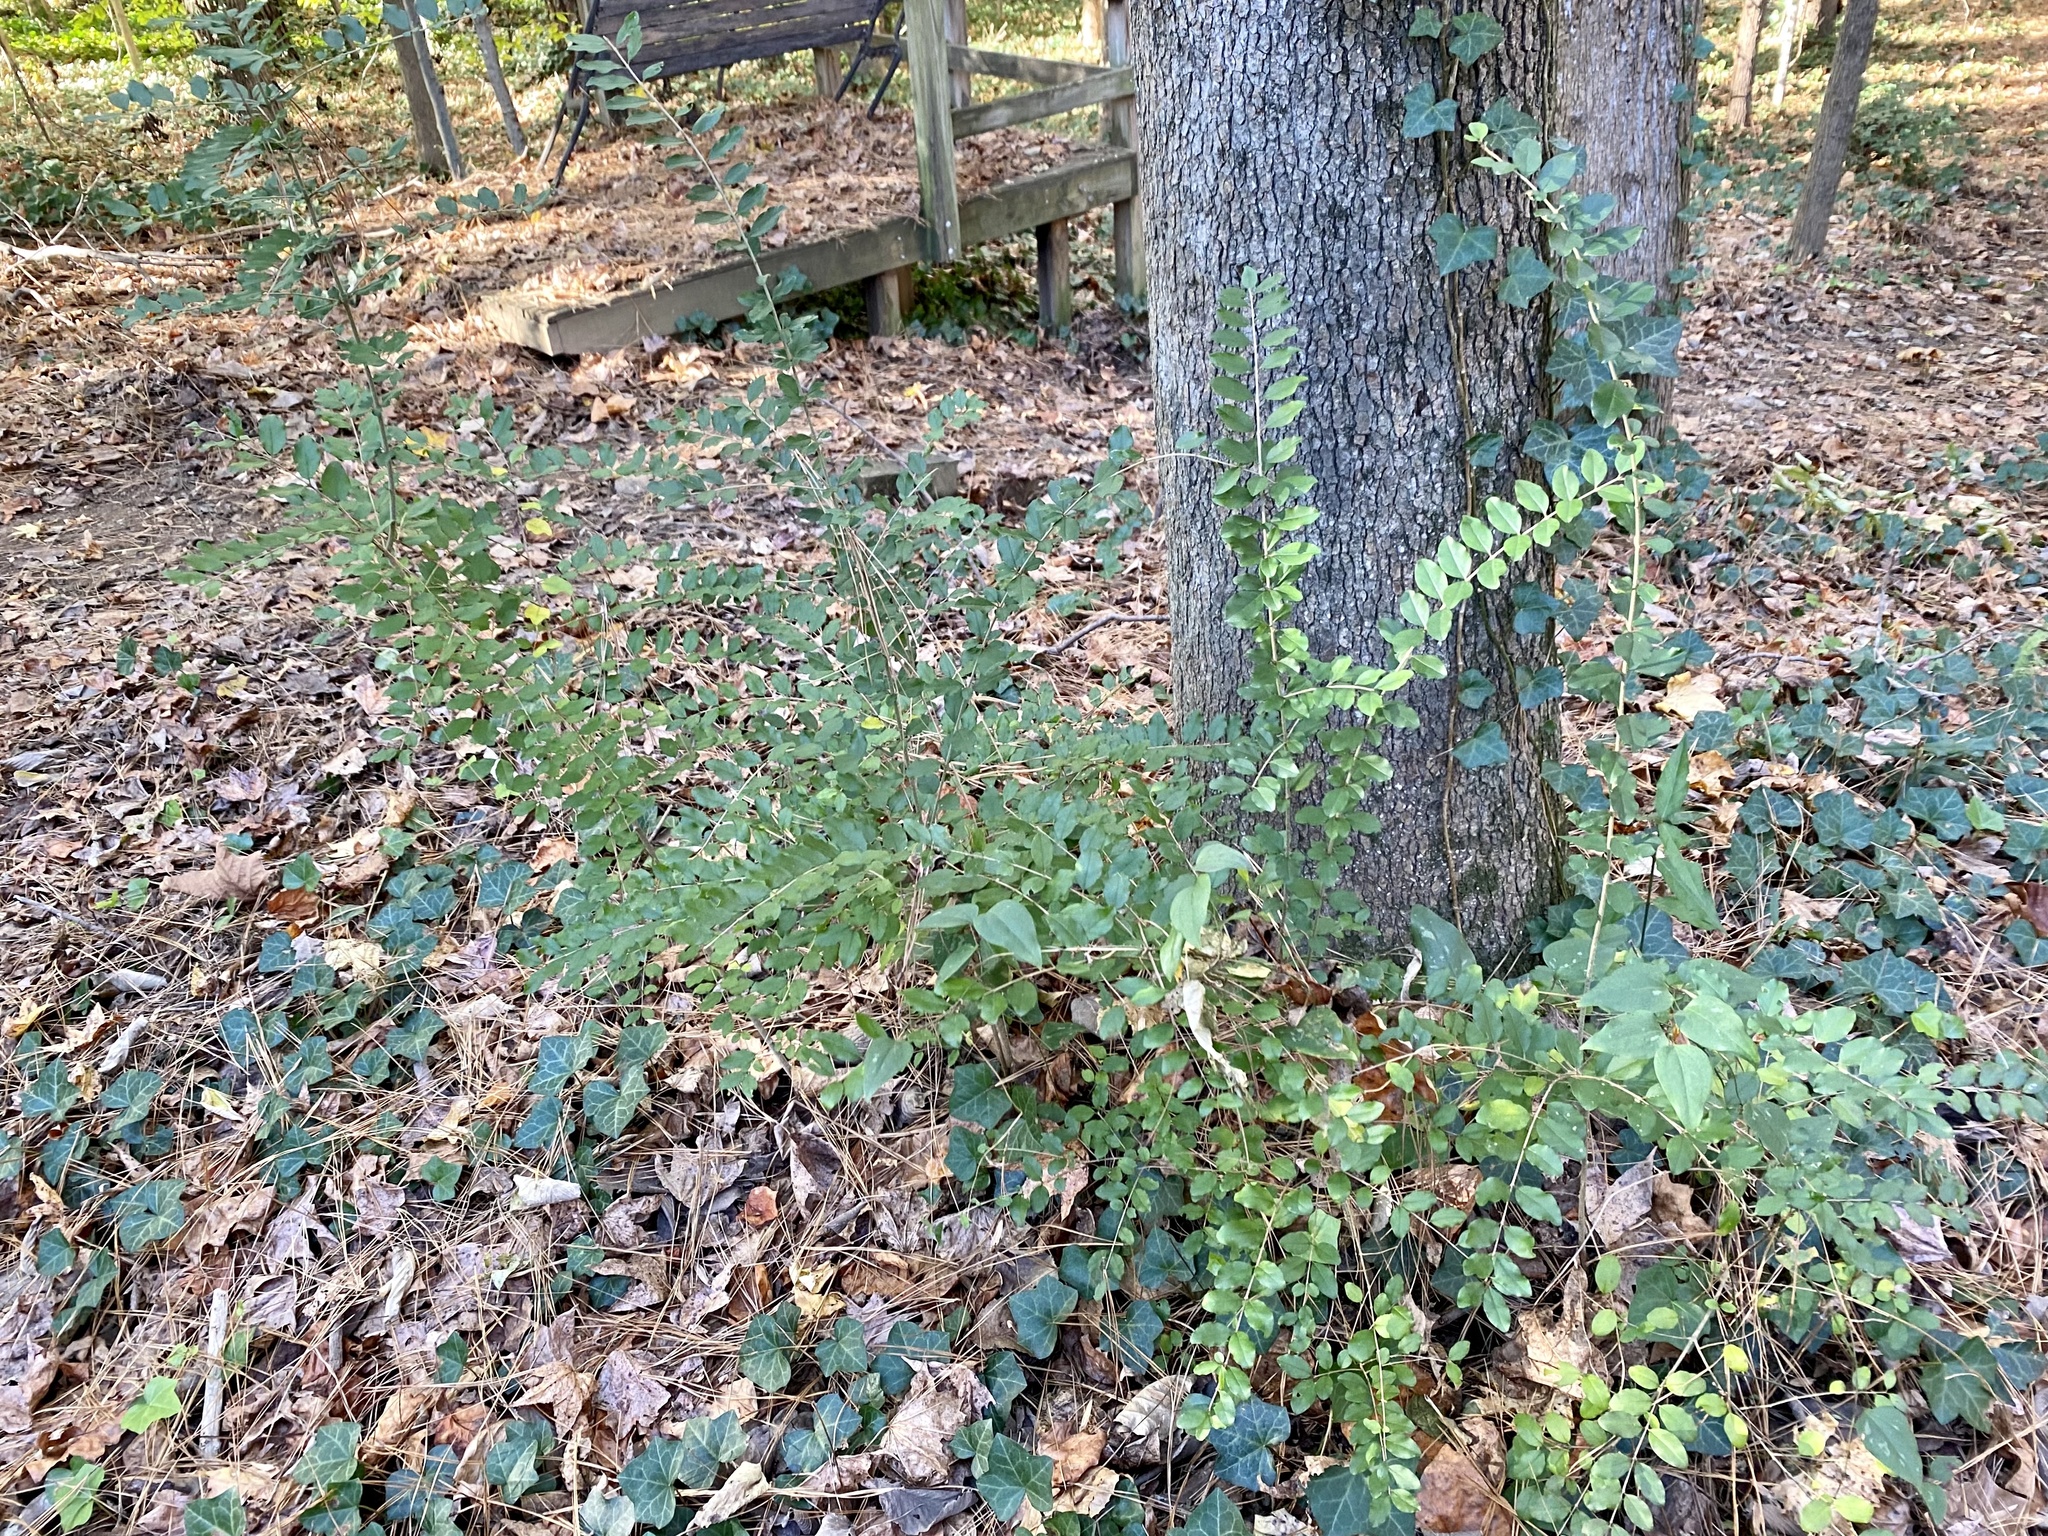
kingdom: Plantae
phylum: Tracheophyta
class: Magnoliopsida
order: Lamiales
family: Oleaceae
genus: Ligustrum
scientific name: Ligustrum sinense
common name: Chinese privet
